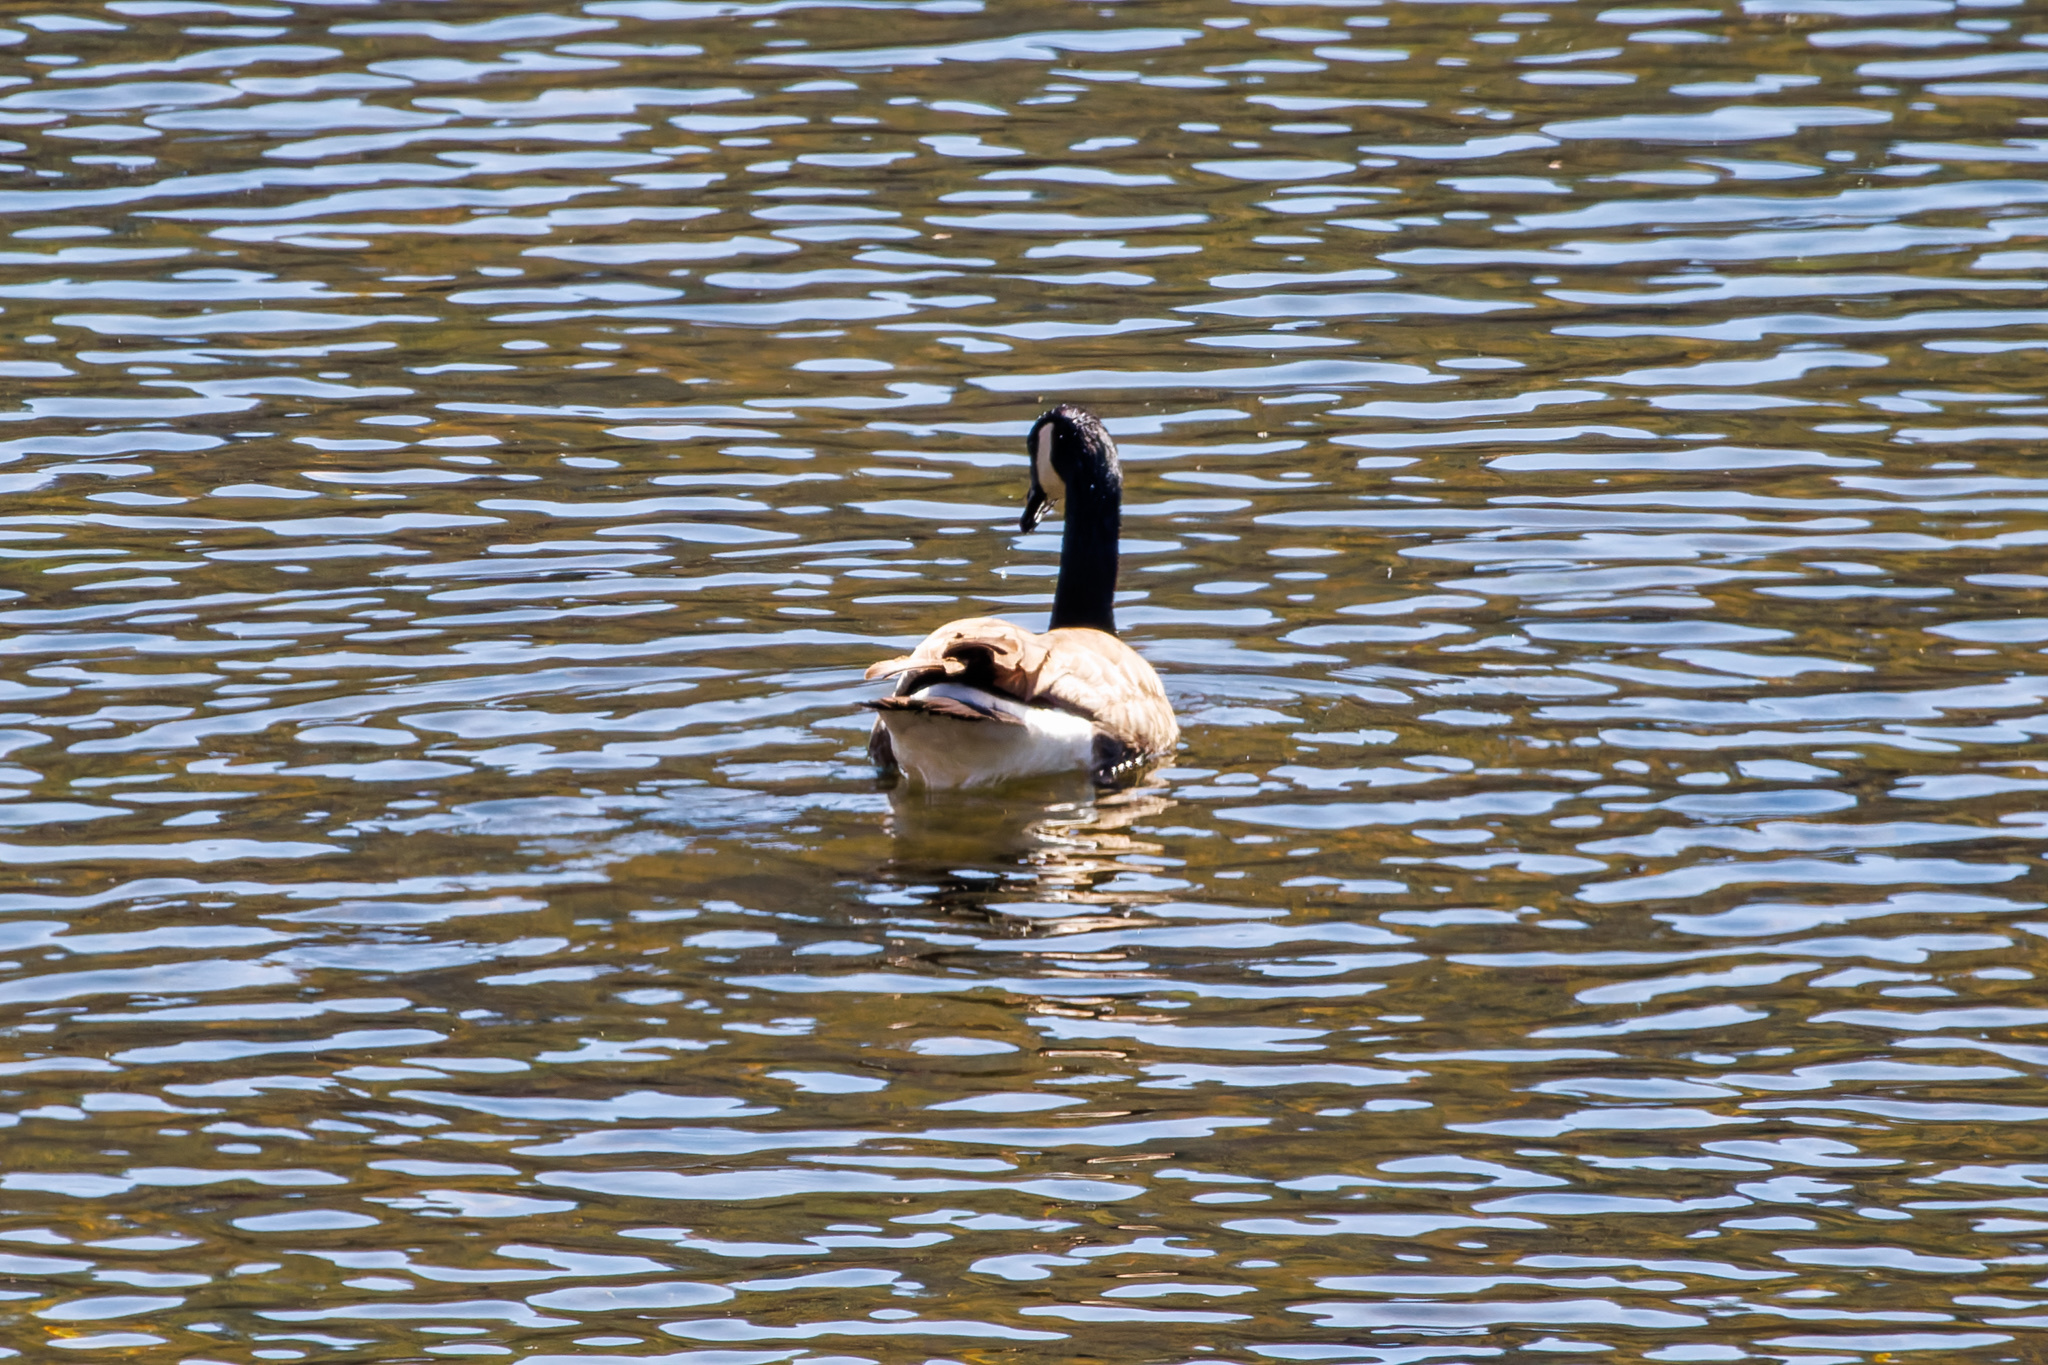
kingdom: Animalia
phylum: Chordata
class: Aves
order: Anseriformes
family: Anatidae
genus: Branta
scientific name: Branta canadensis
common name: Canada goose
